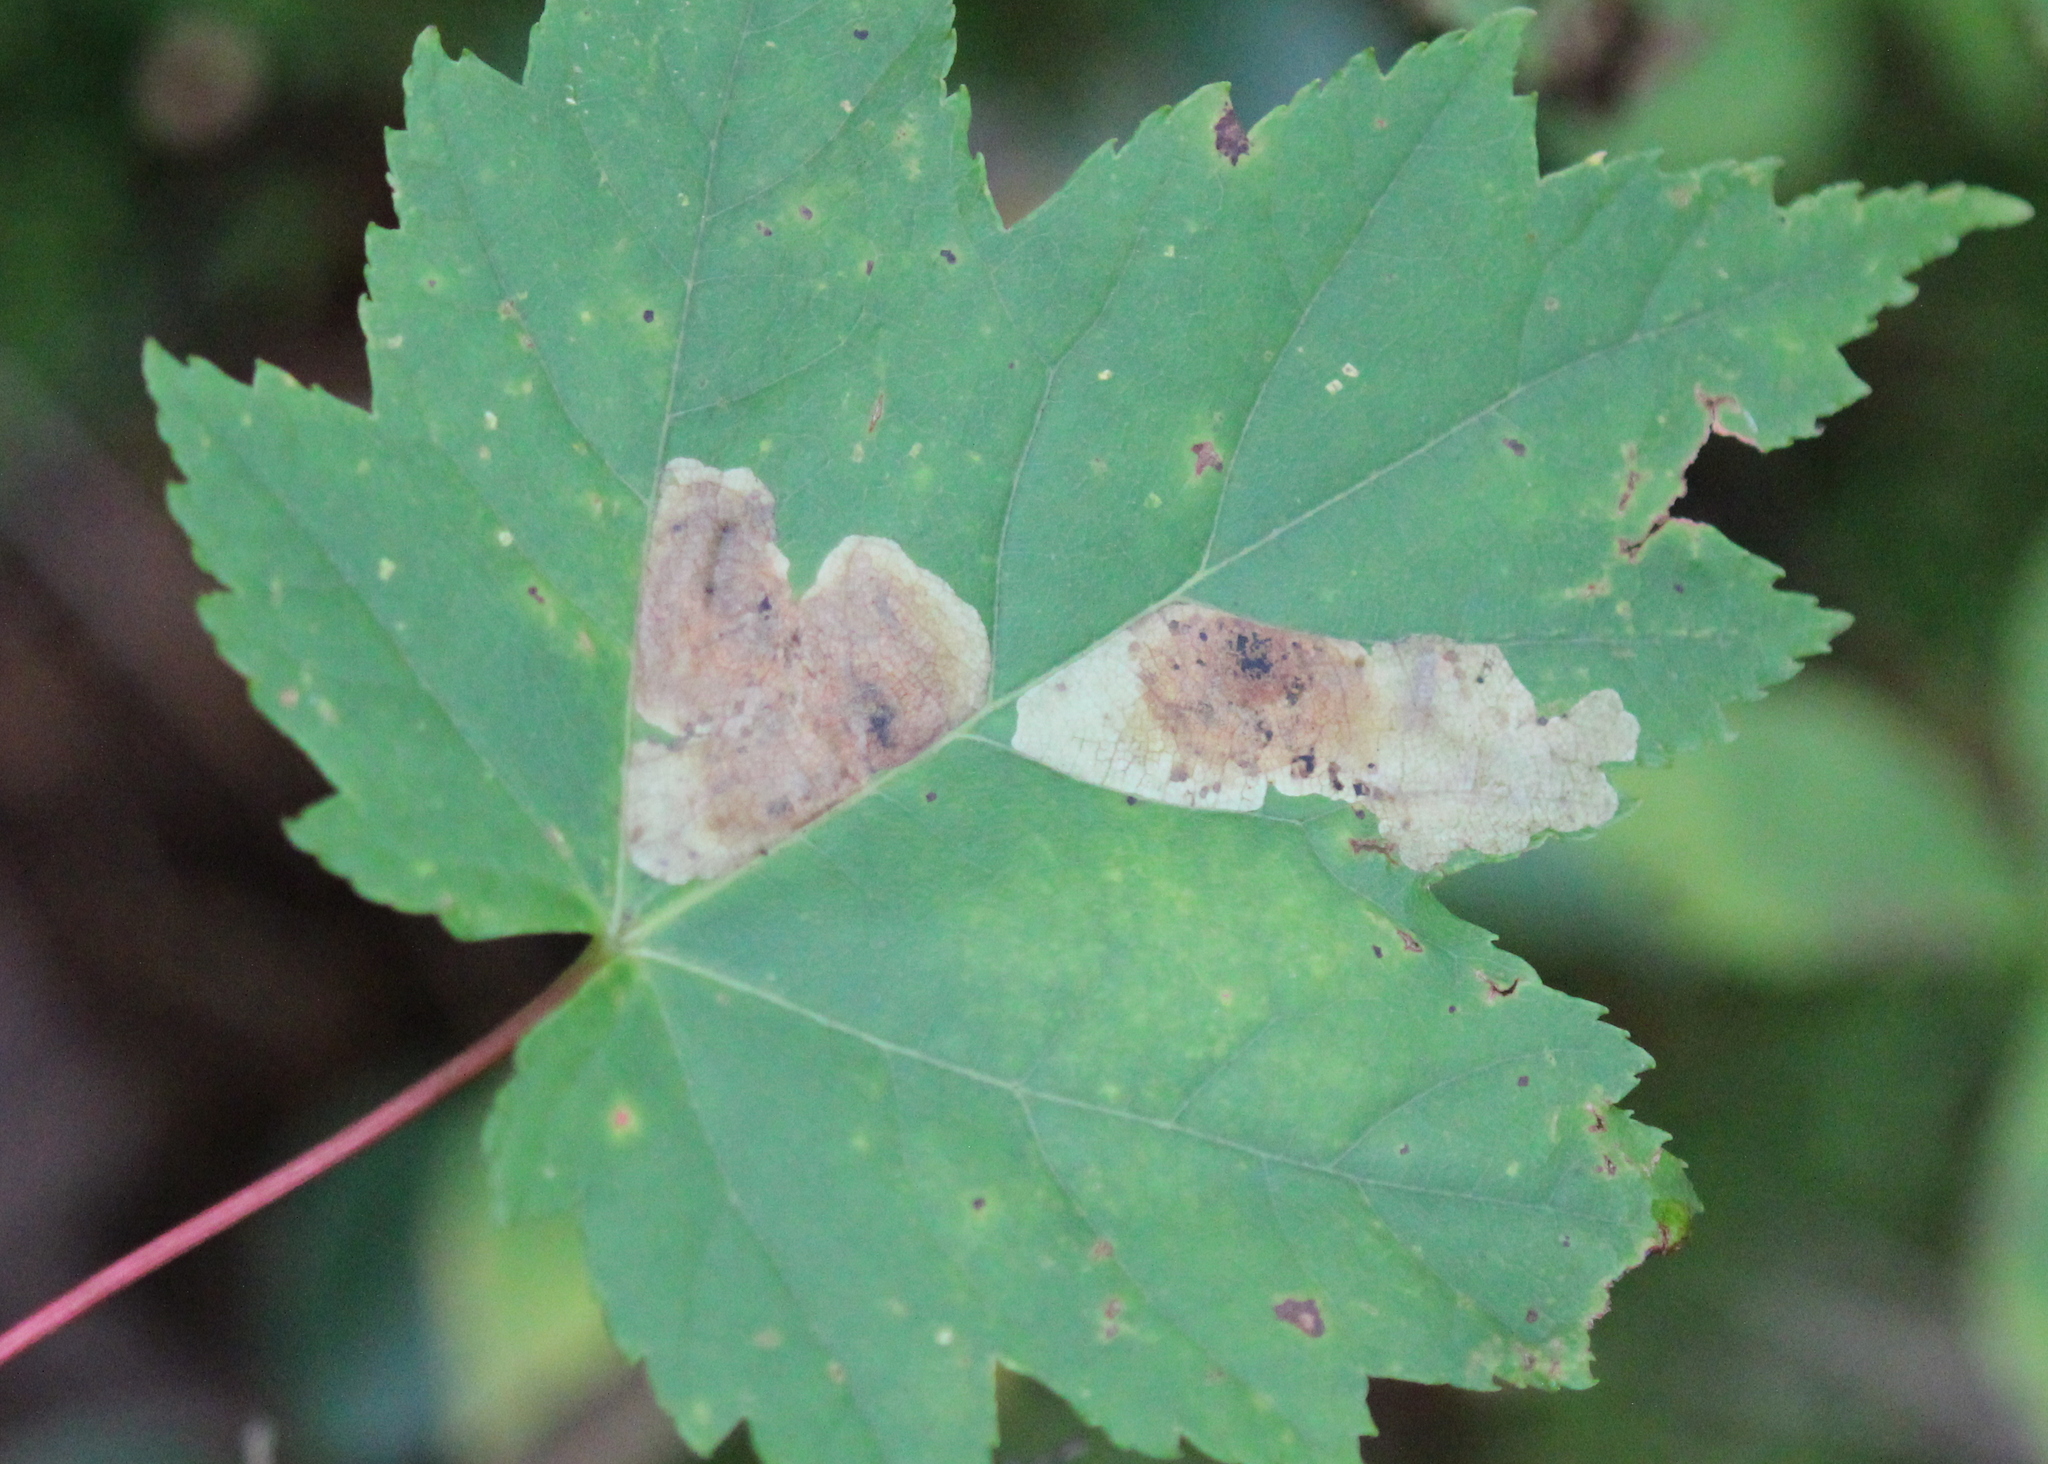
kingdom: Animalia
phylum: Arthropoda
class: Insecta
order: Lepidoptera
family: Gracillariidae
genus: Cameraria
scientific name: Cameraria aceriella
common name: Maple leafblotch miner
